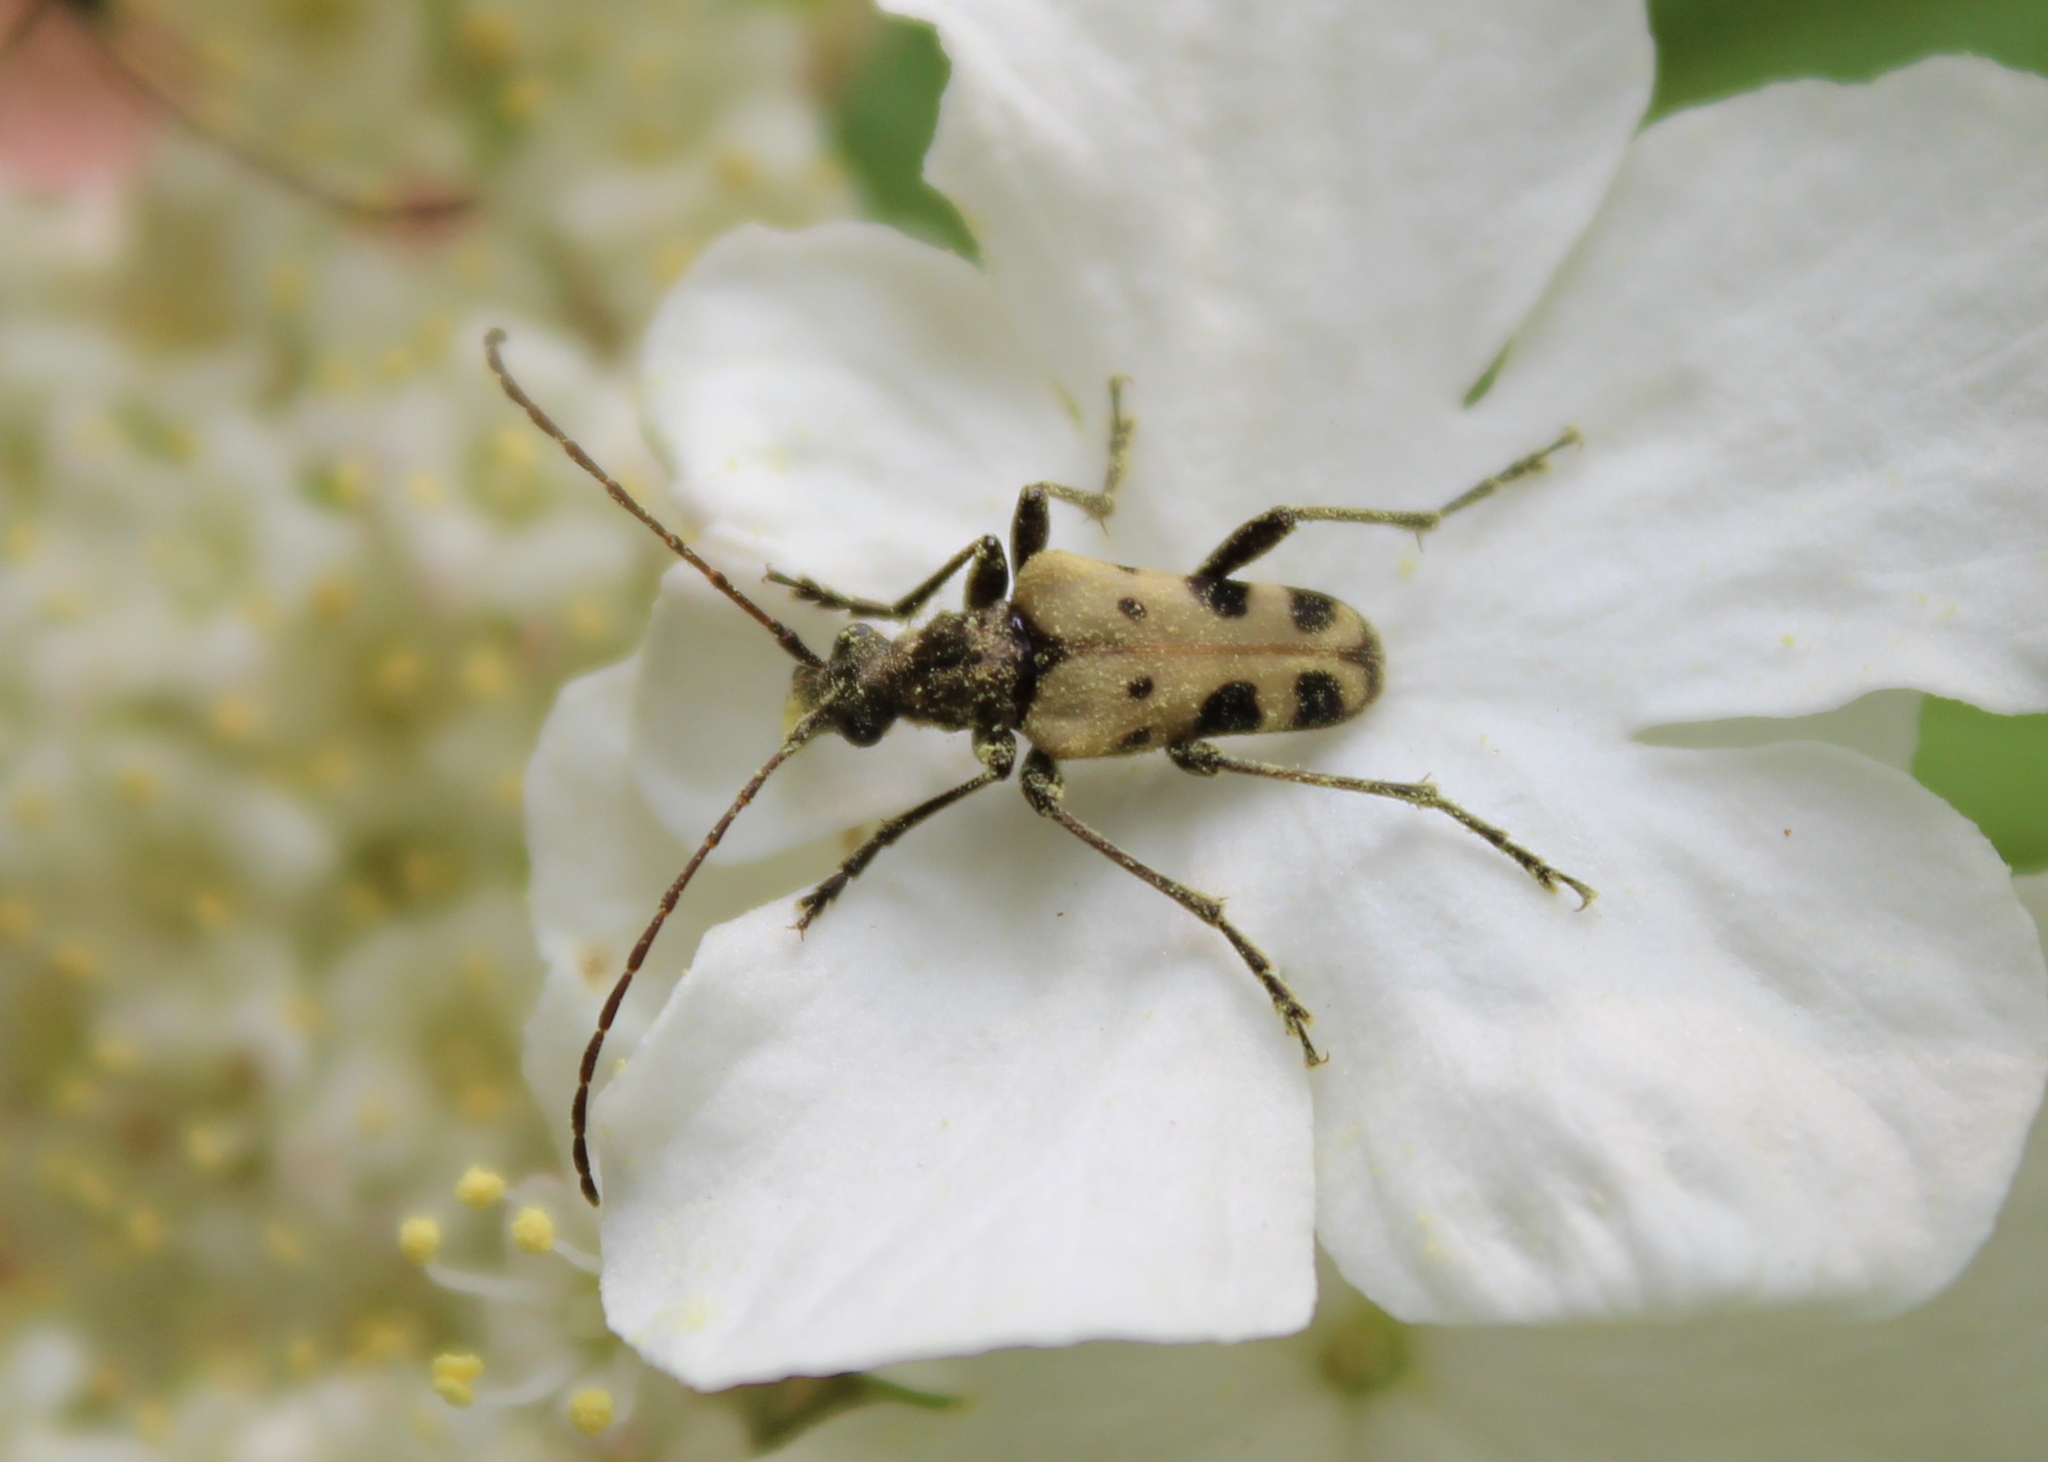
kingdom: Animalia
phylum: Arthropoda
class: Insecta
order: Coleoptera
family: Cerambycidae
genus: Evodinus
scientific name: Evodinus monticola
